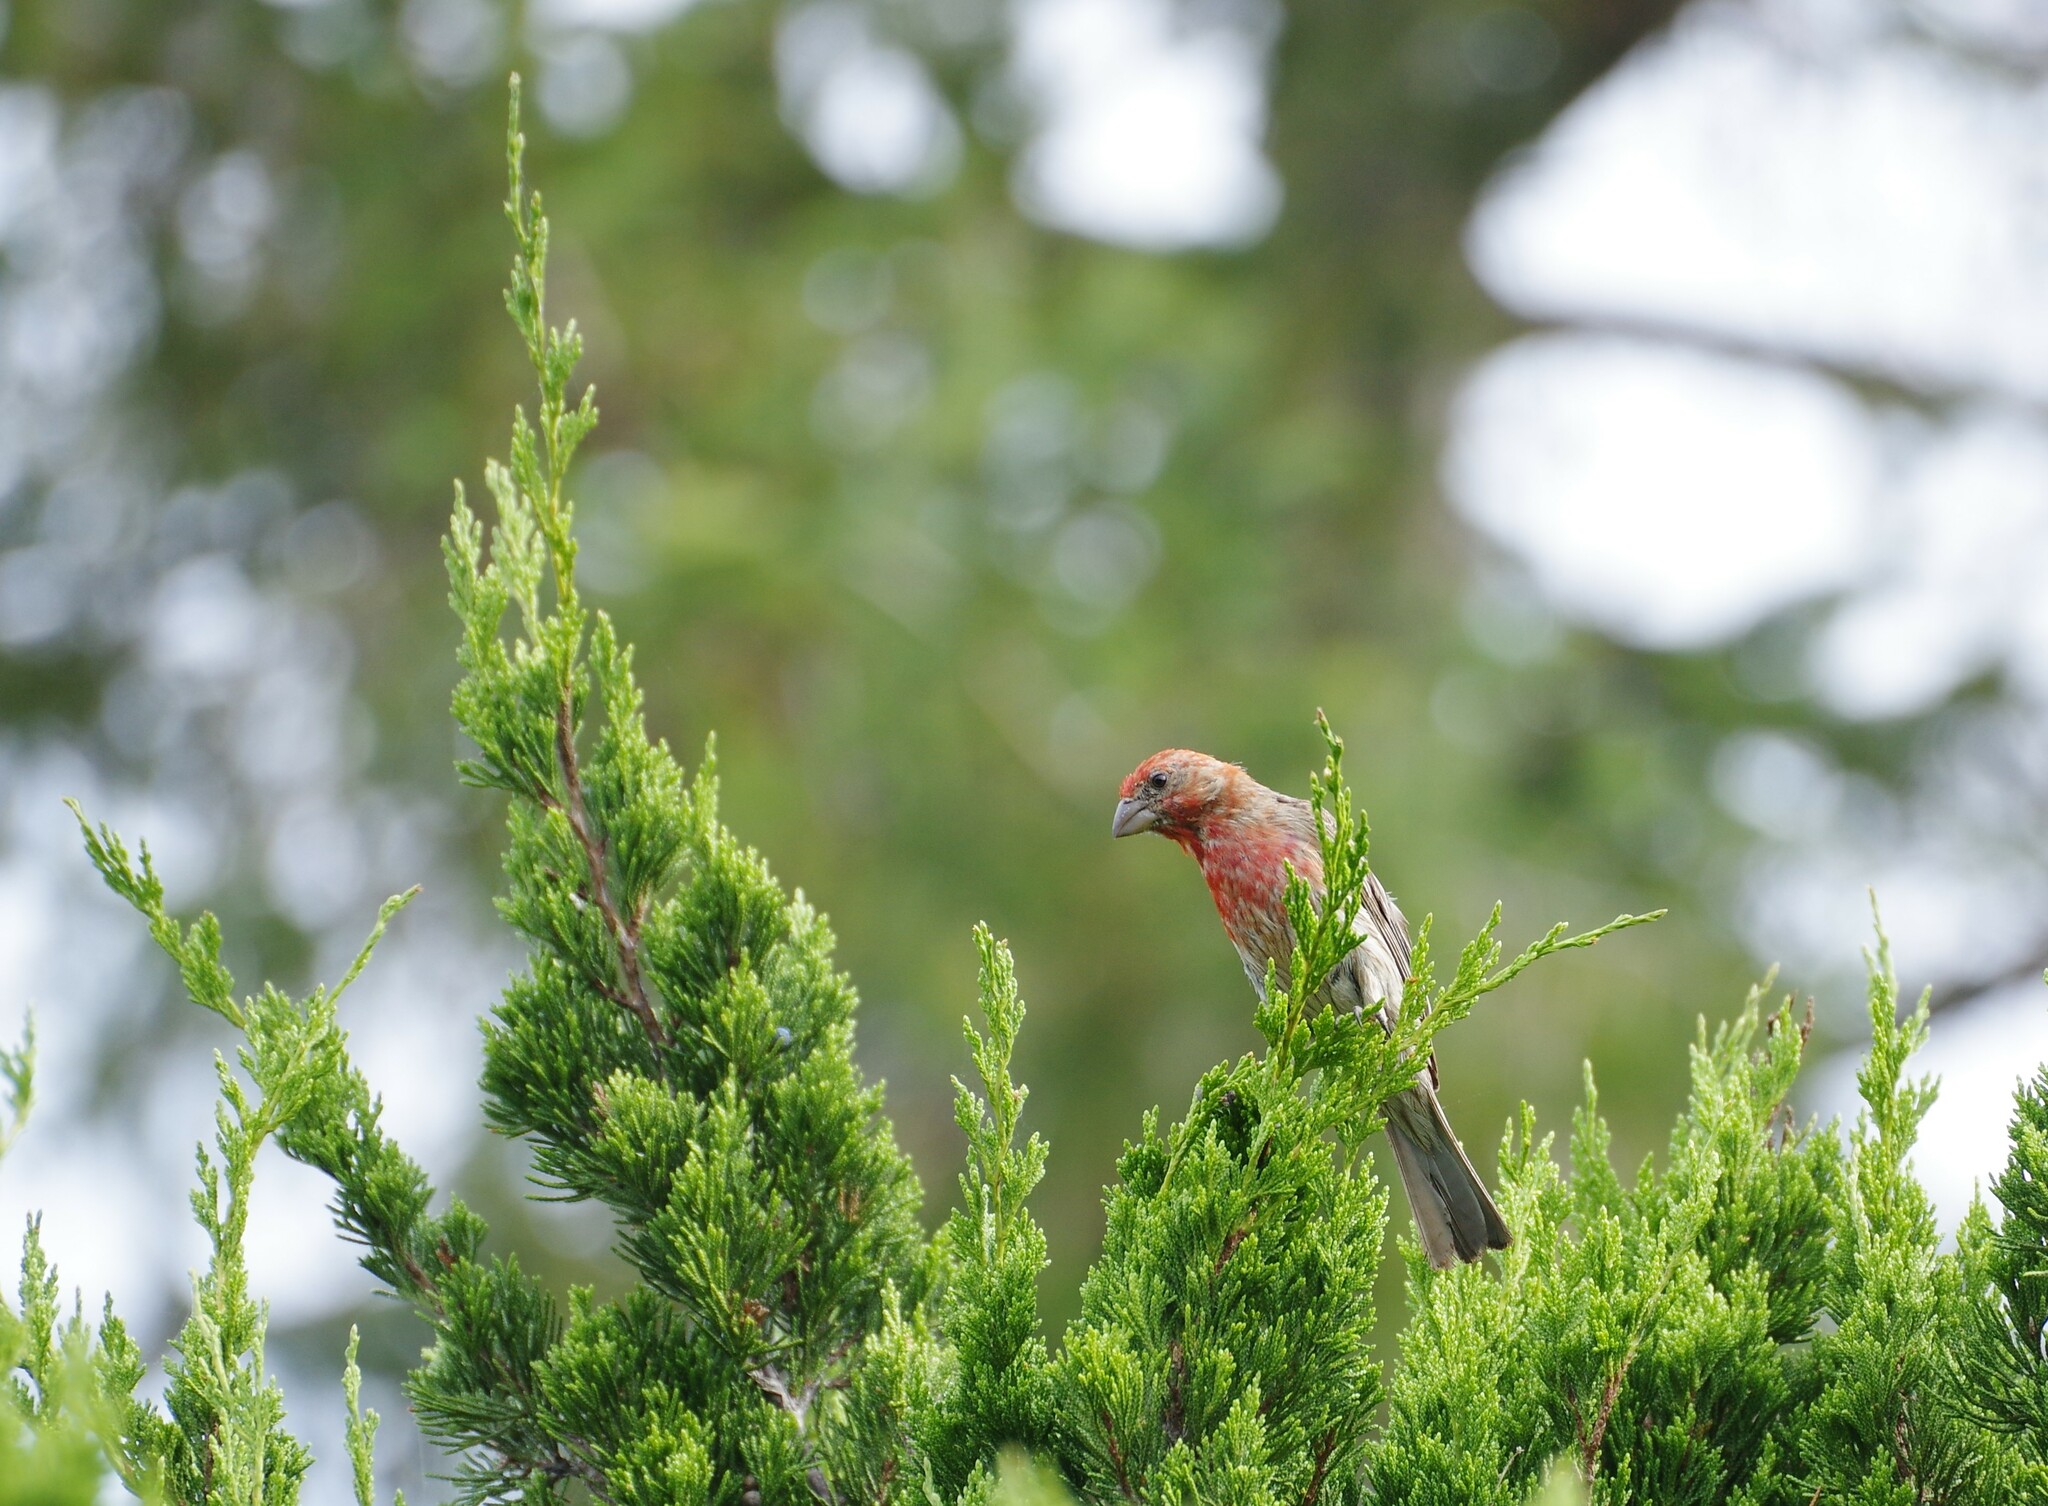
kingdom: Animalia
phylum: Chordata
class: Aves
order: Passeriformes
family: Fringillidae
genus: Haemorhous
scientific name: Haemorhous mexicanus
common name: House finch
